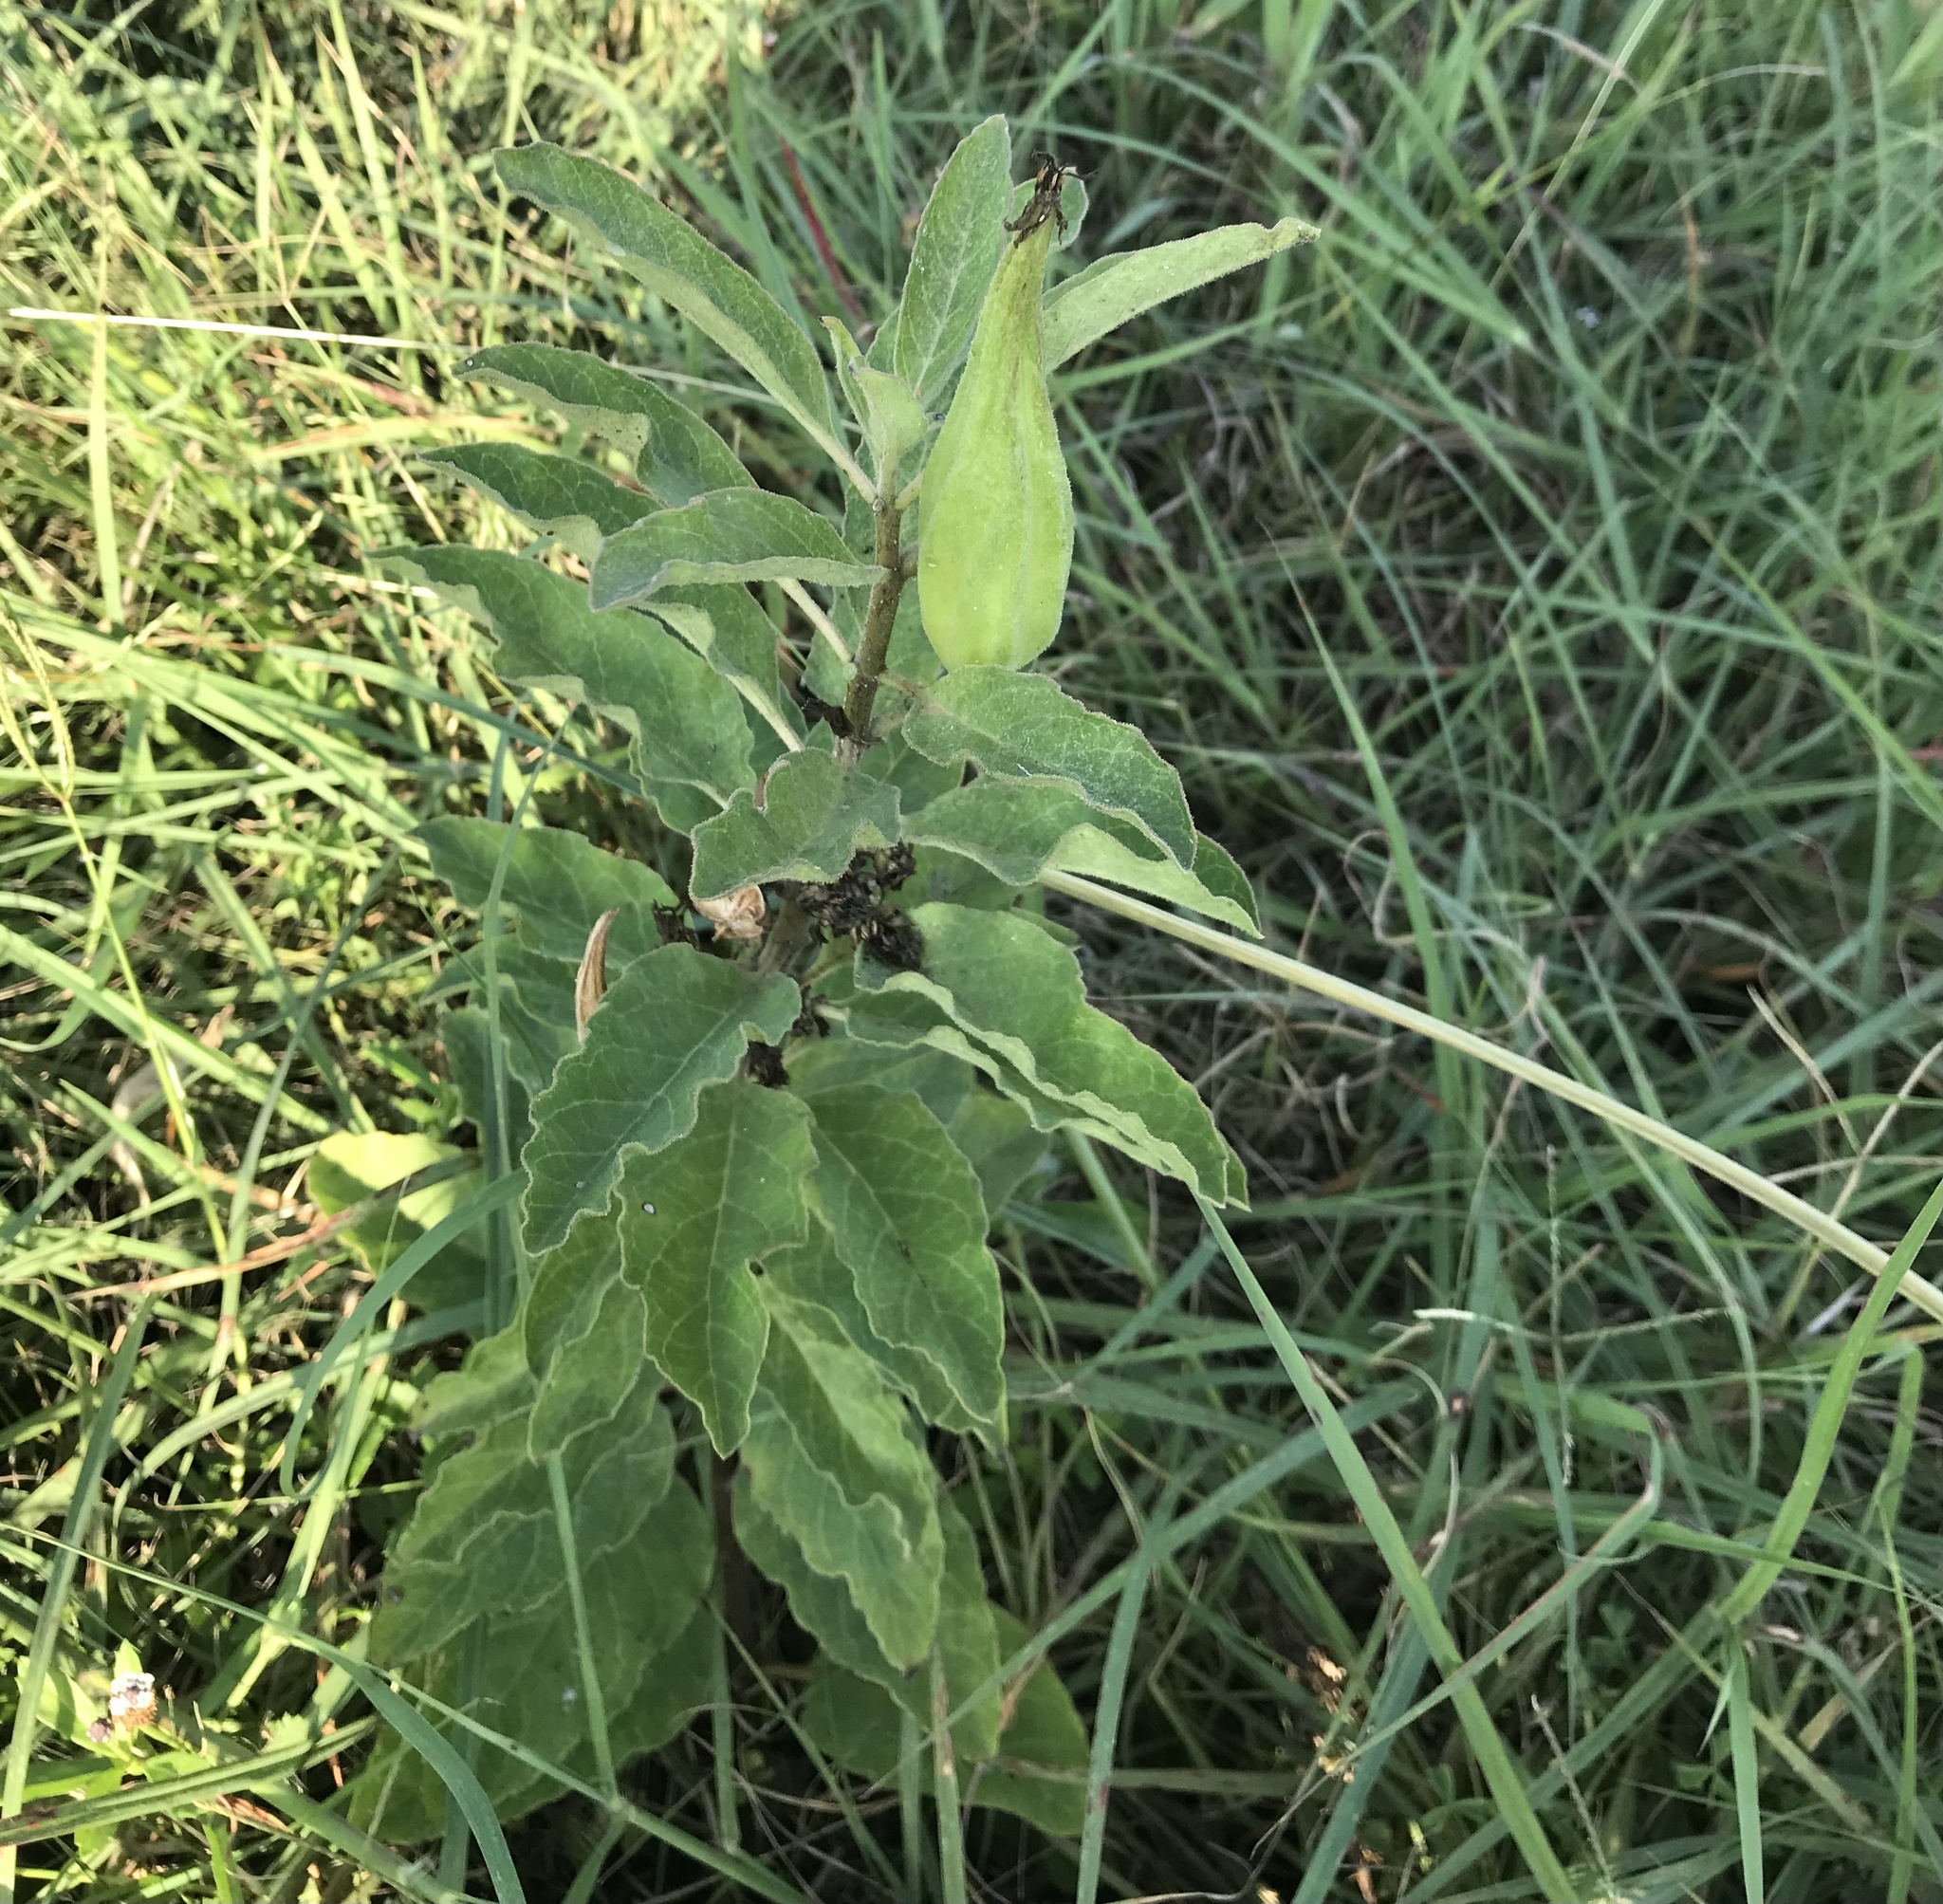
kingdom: Plantae
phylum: Tracheophyta
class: Magnoliopsida
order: Gentianales
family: Apocynaceae
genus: Asclepias
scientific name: Asclepias oenotheroides
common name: Zizotes milkweed
